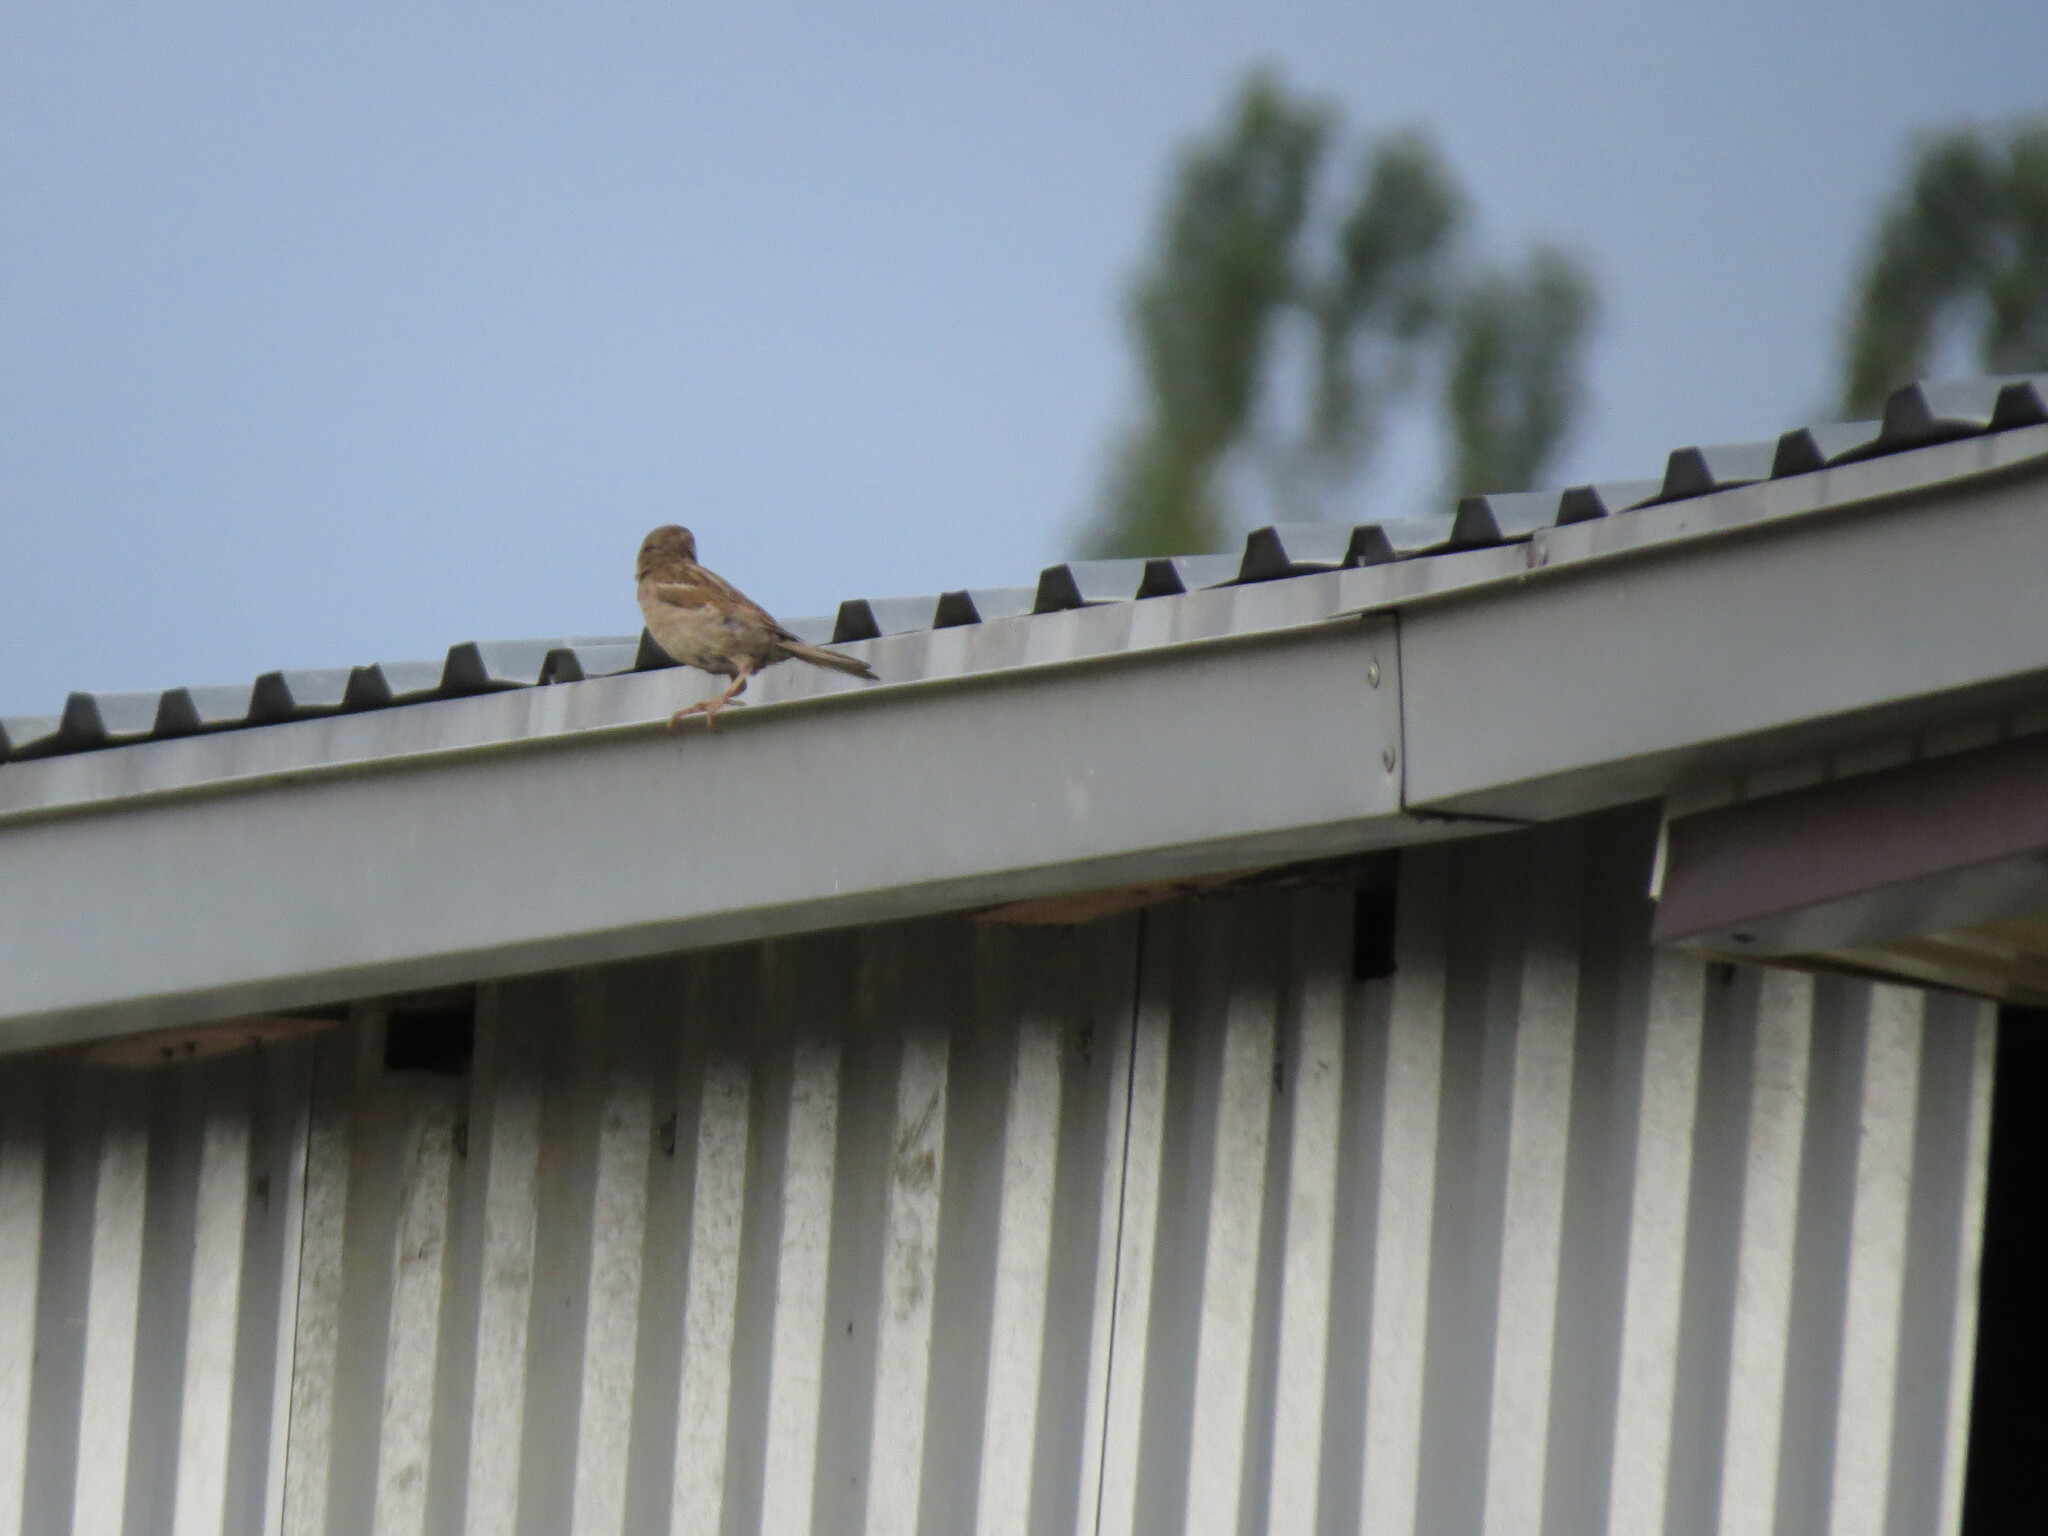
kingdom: Animalia
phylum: Chordata
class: Aves
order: Passeriformes
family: Passeridae
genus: Passer
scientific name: Passer domesticus
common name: House sparrow
